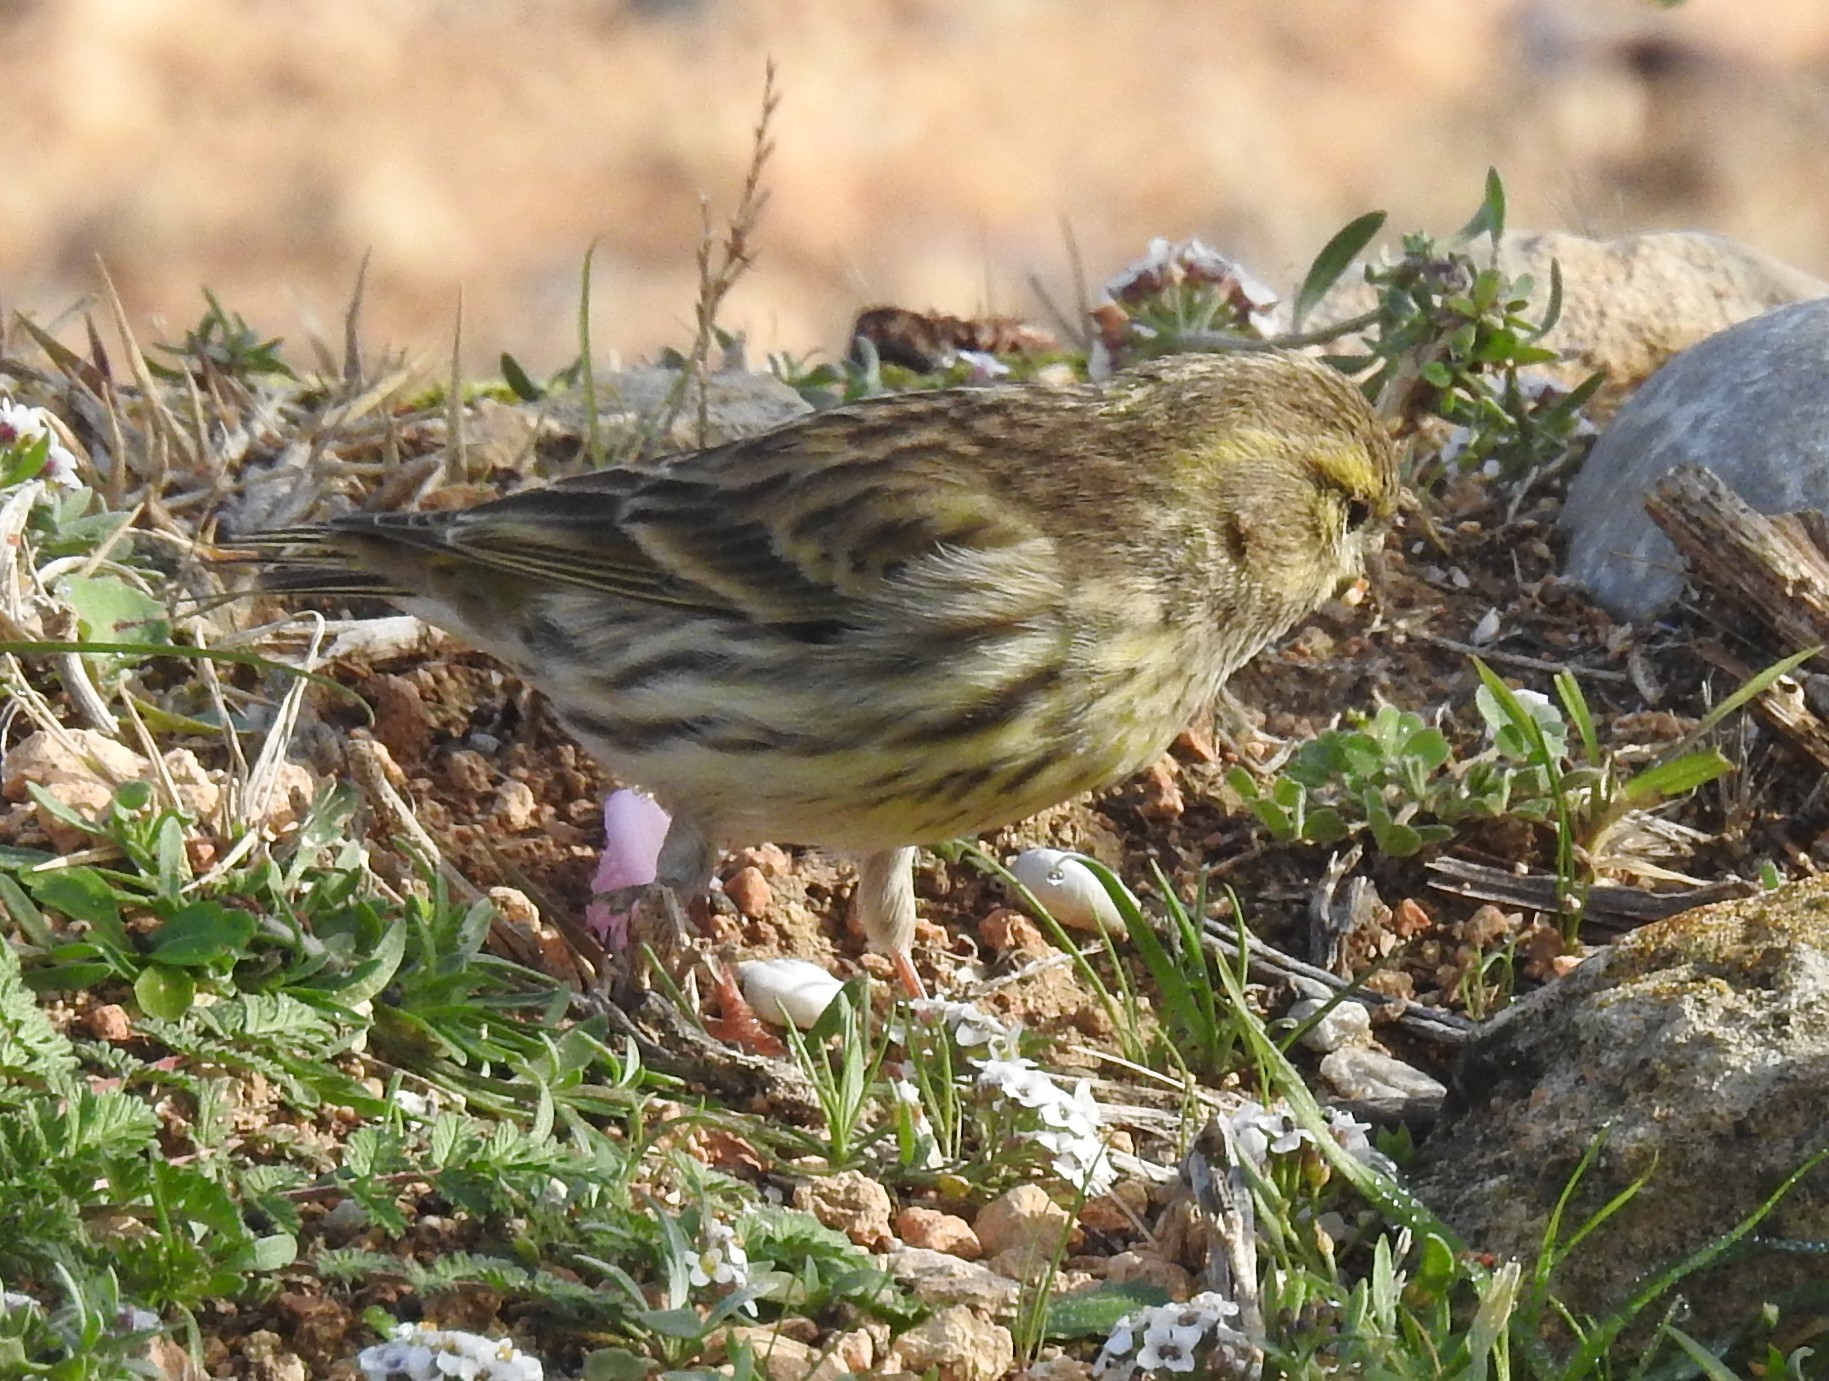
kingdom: Animalia
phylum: Chordata
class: Aves
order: Passeriformes
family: Fringillidae
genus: Serinus
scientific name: Serinus serinus
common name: European serin
